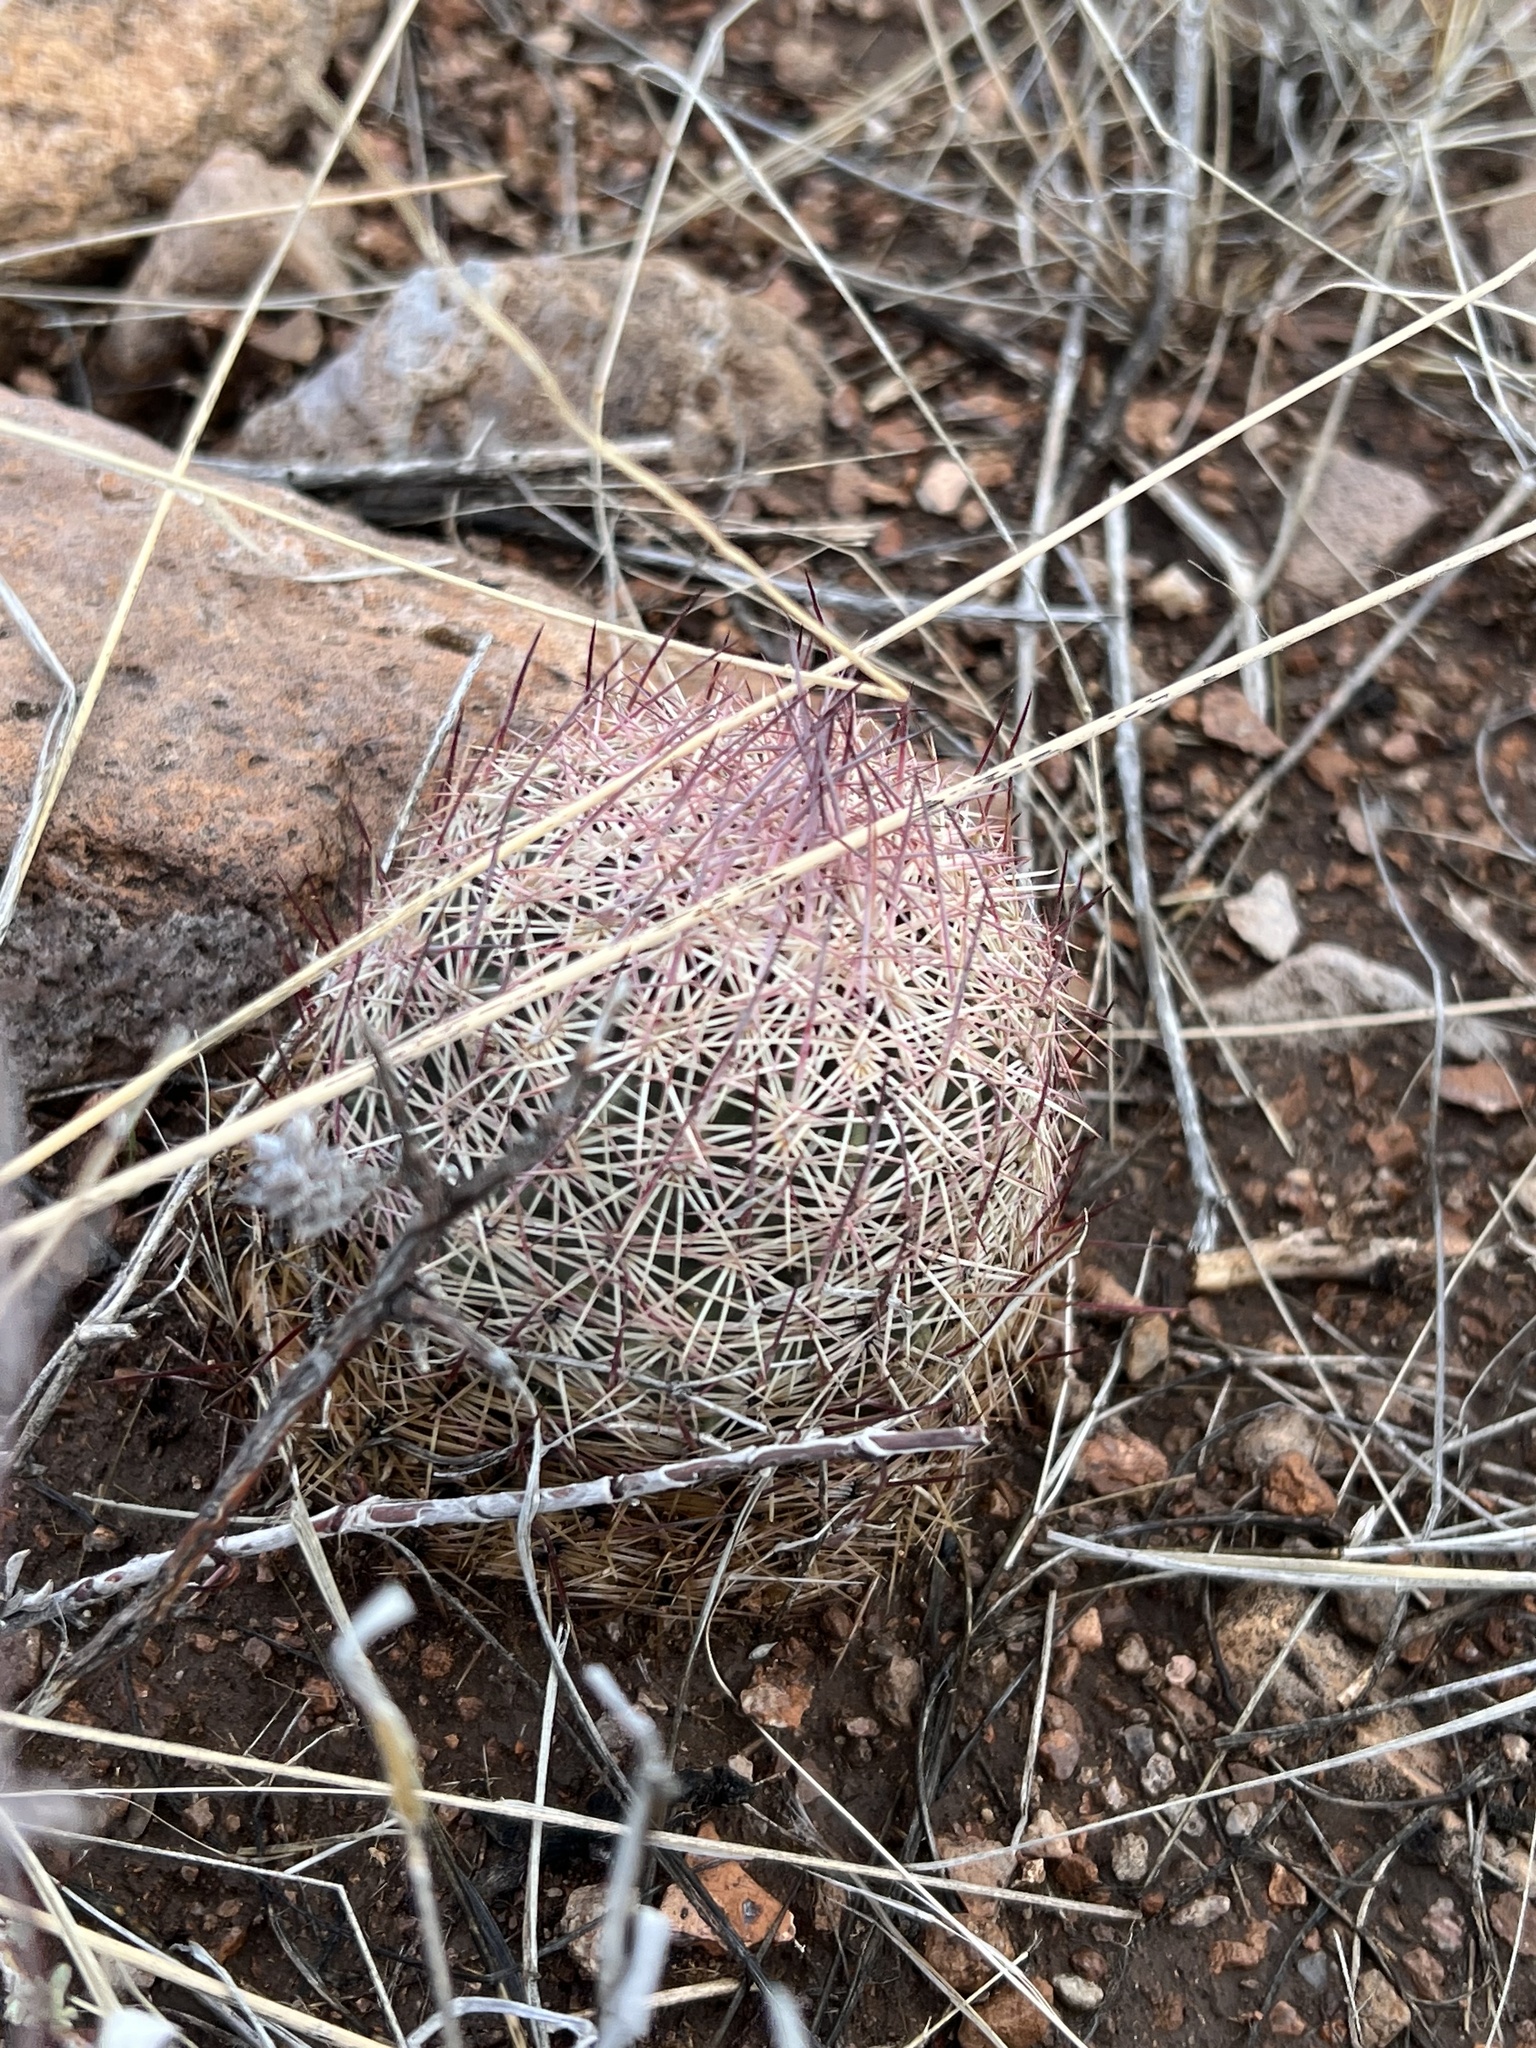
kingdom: Plantae
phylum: Tracheophyta
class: Magnoliopsida
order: Caryophyllales
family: Cactaceae
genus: Sclerocactus
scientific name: Sclerocactus johnsonii
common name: Eight-spine fishhook cactus
